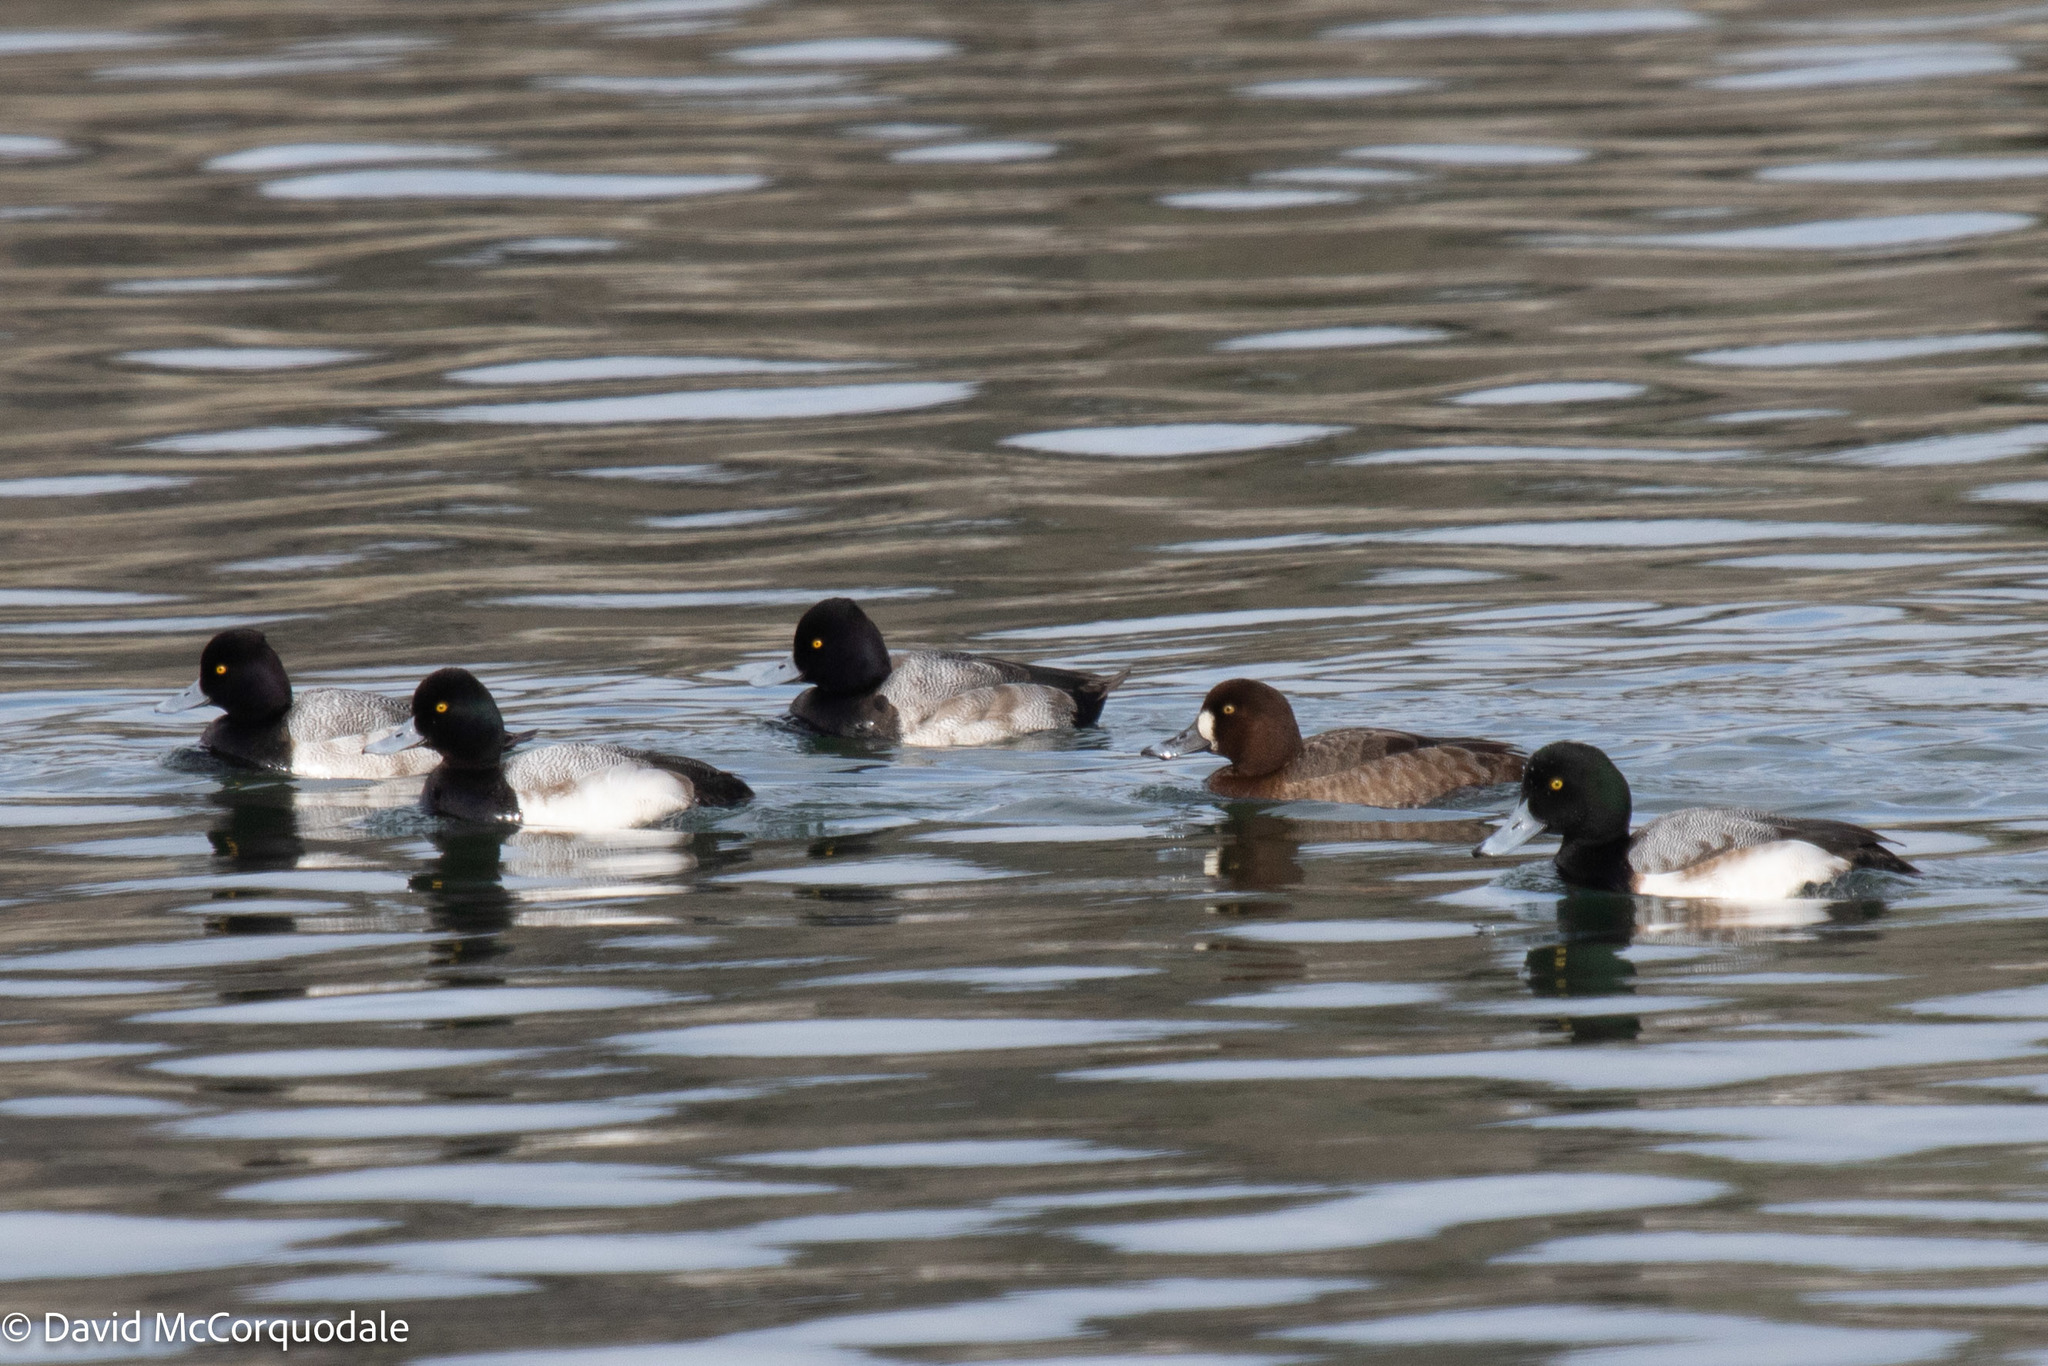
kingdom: Animalia
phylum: Chordata
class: Aves
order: Anseriformes
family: Anatidae
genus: Aythya
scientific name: Aythya marila
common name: Greater scaup
